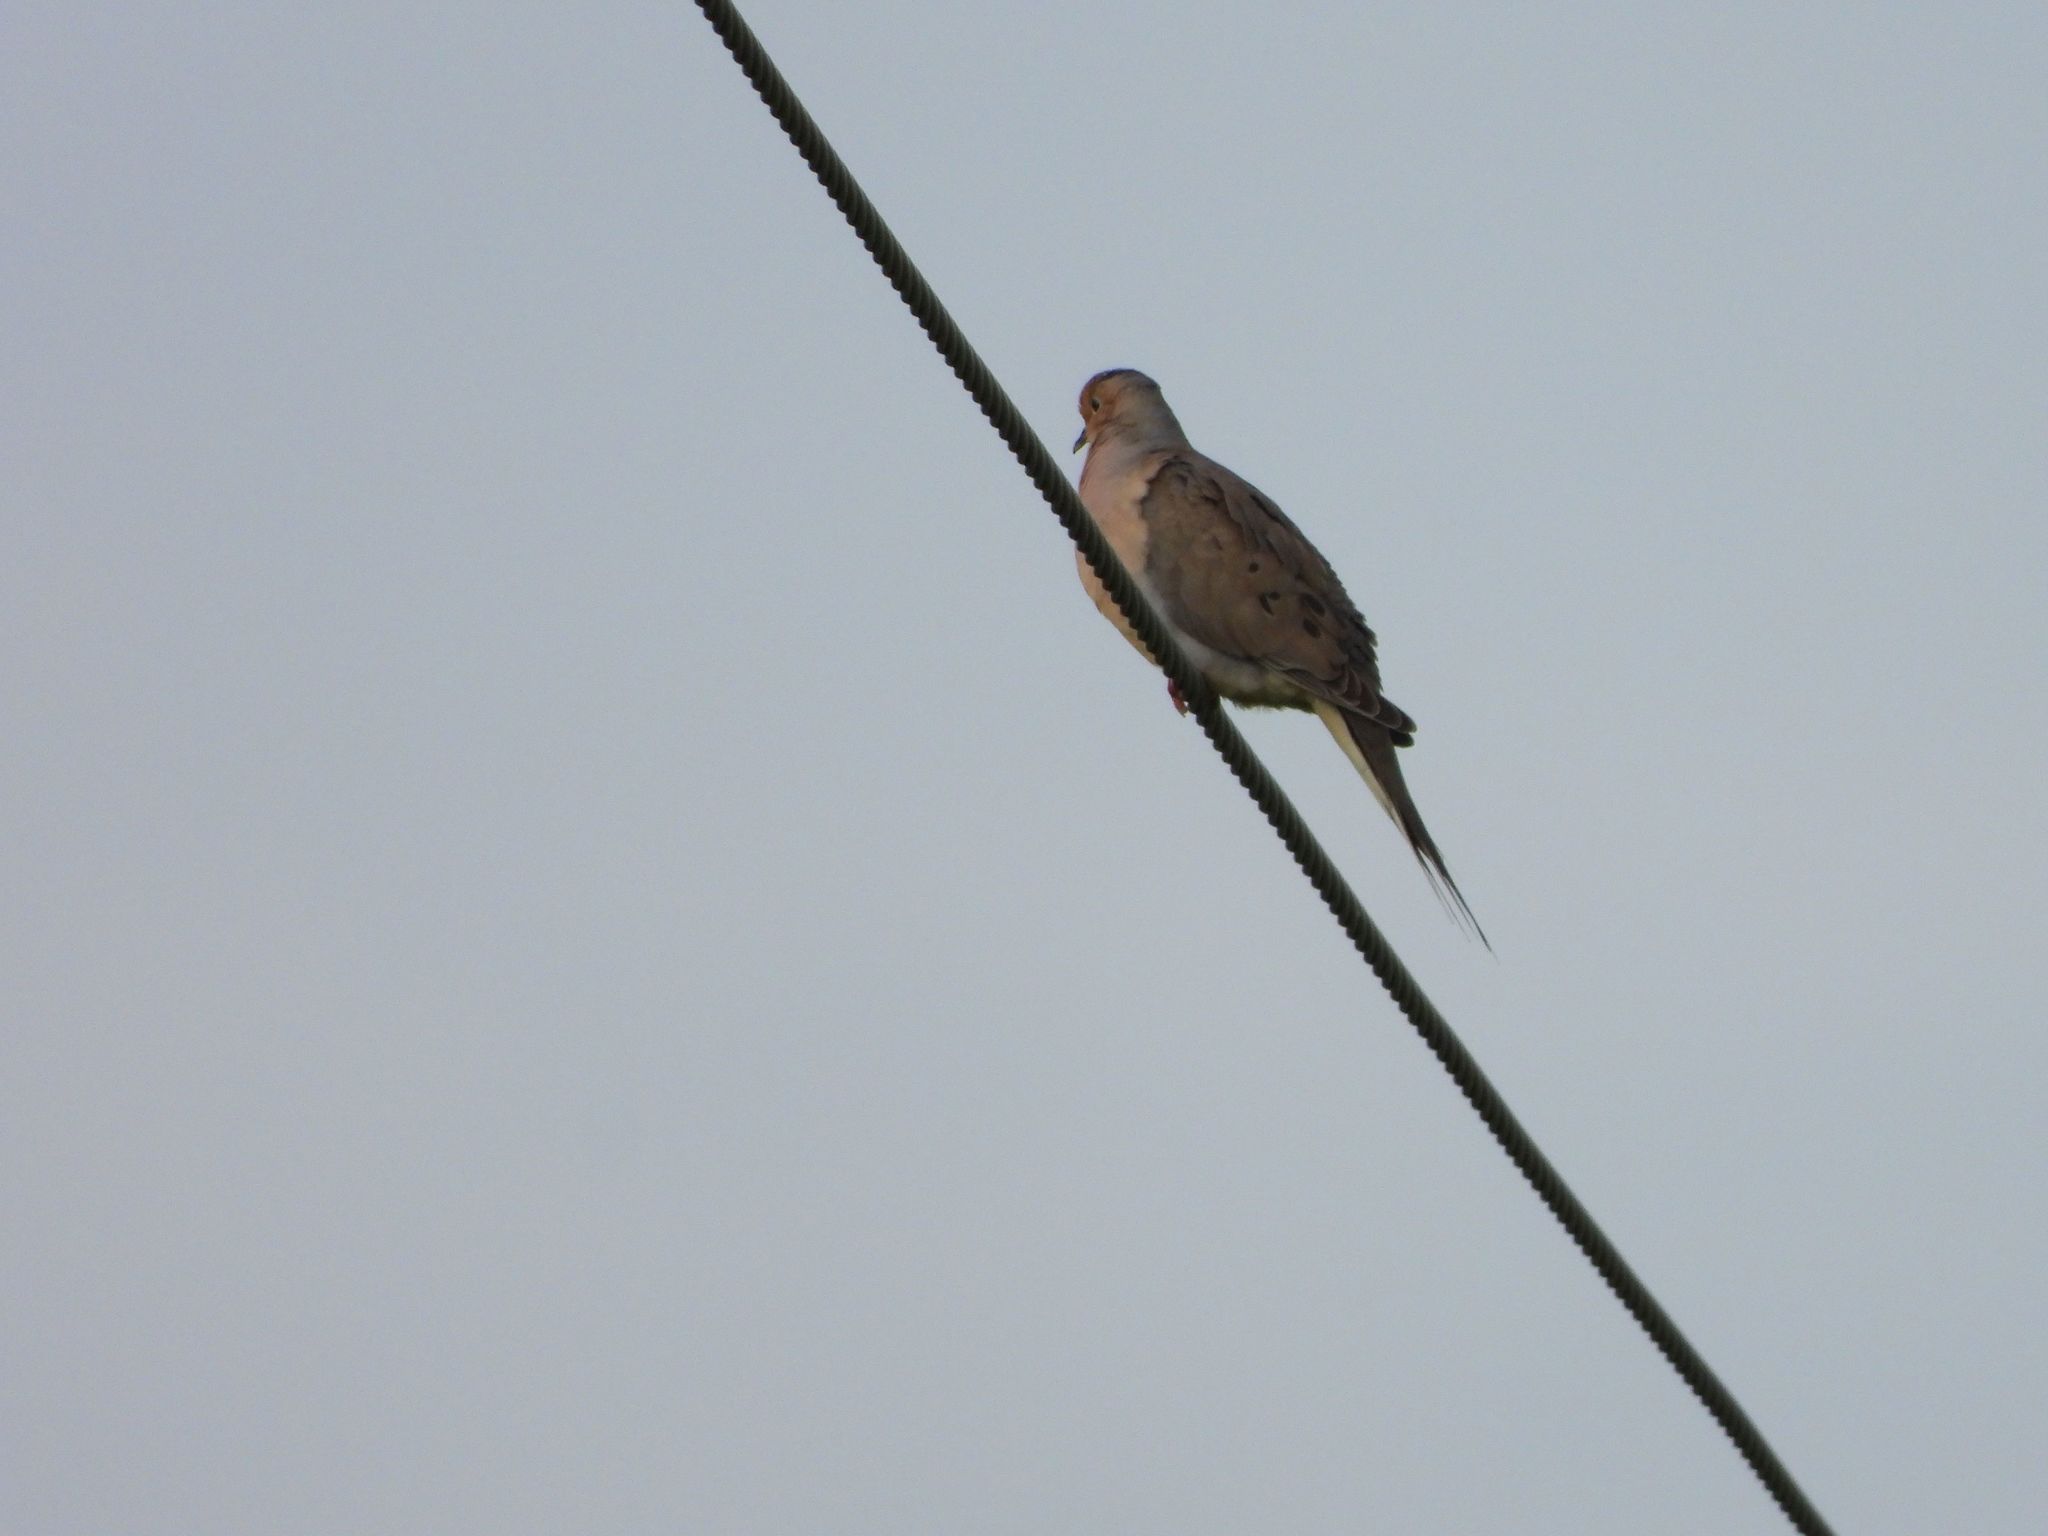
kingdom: Animalia
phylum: Chordata
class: Aves
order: Columbiformes
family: Columbidae
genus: Zenaida
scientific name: Zenaida macroura
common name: Mourning dove
